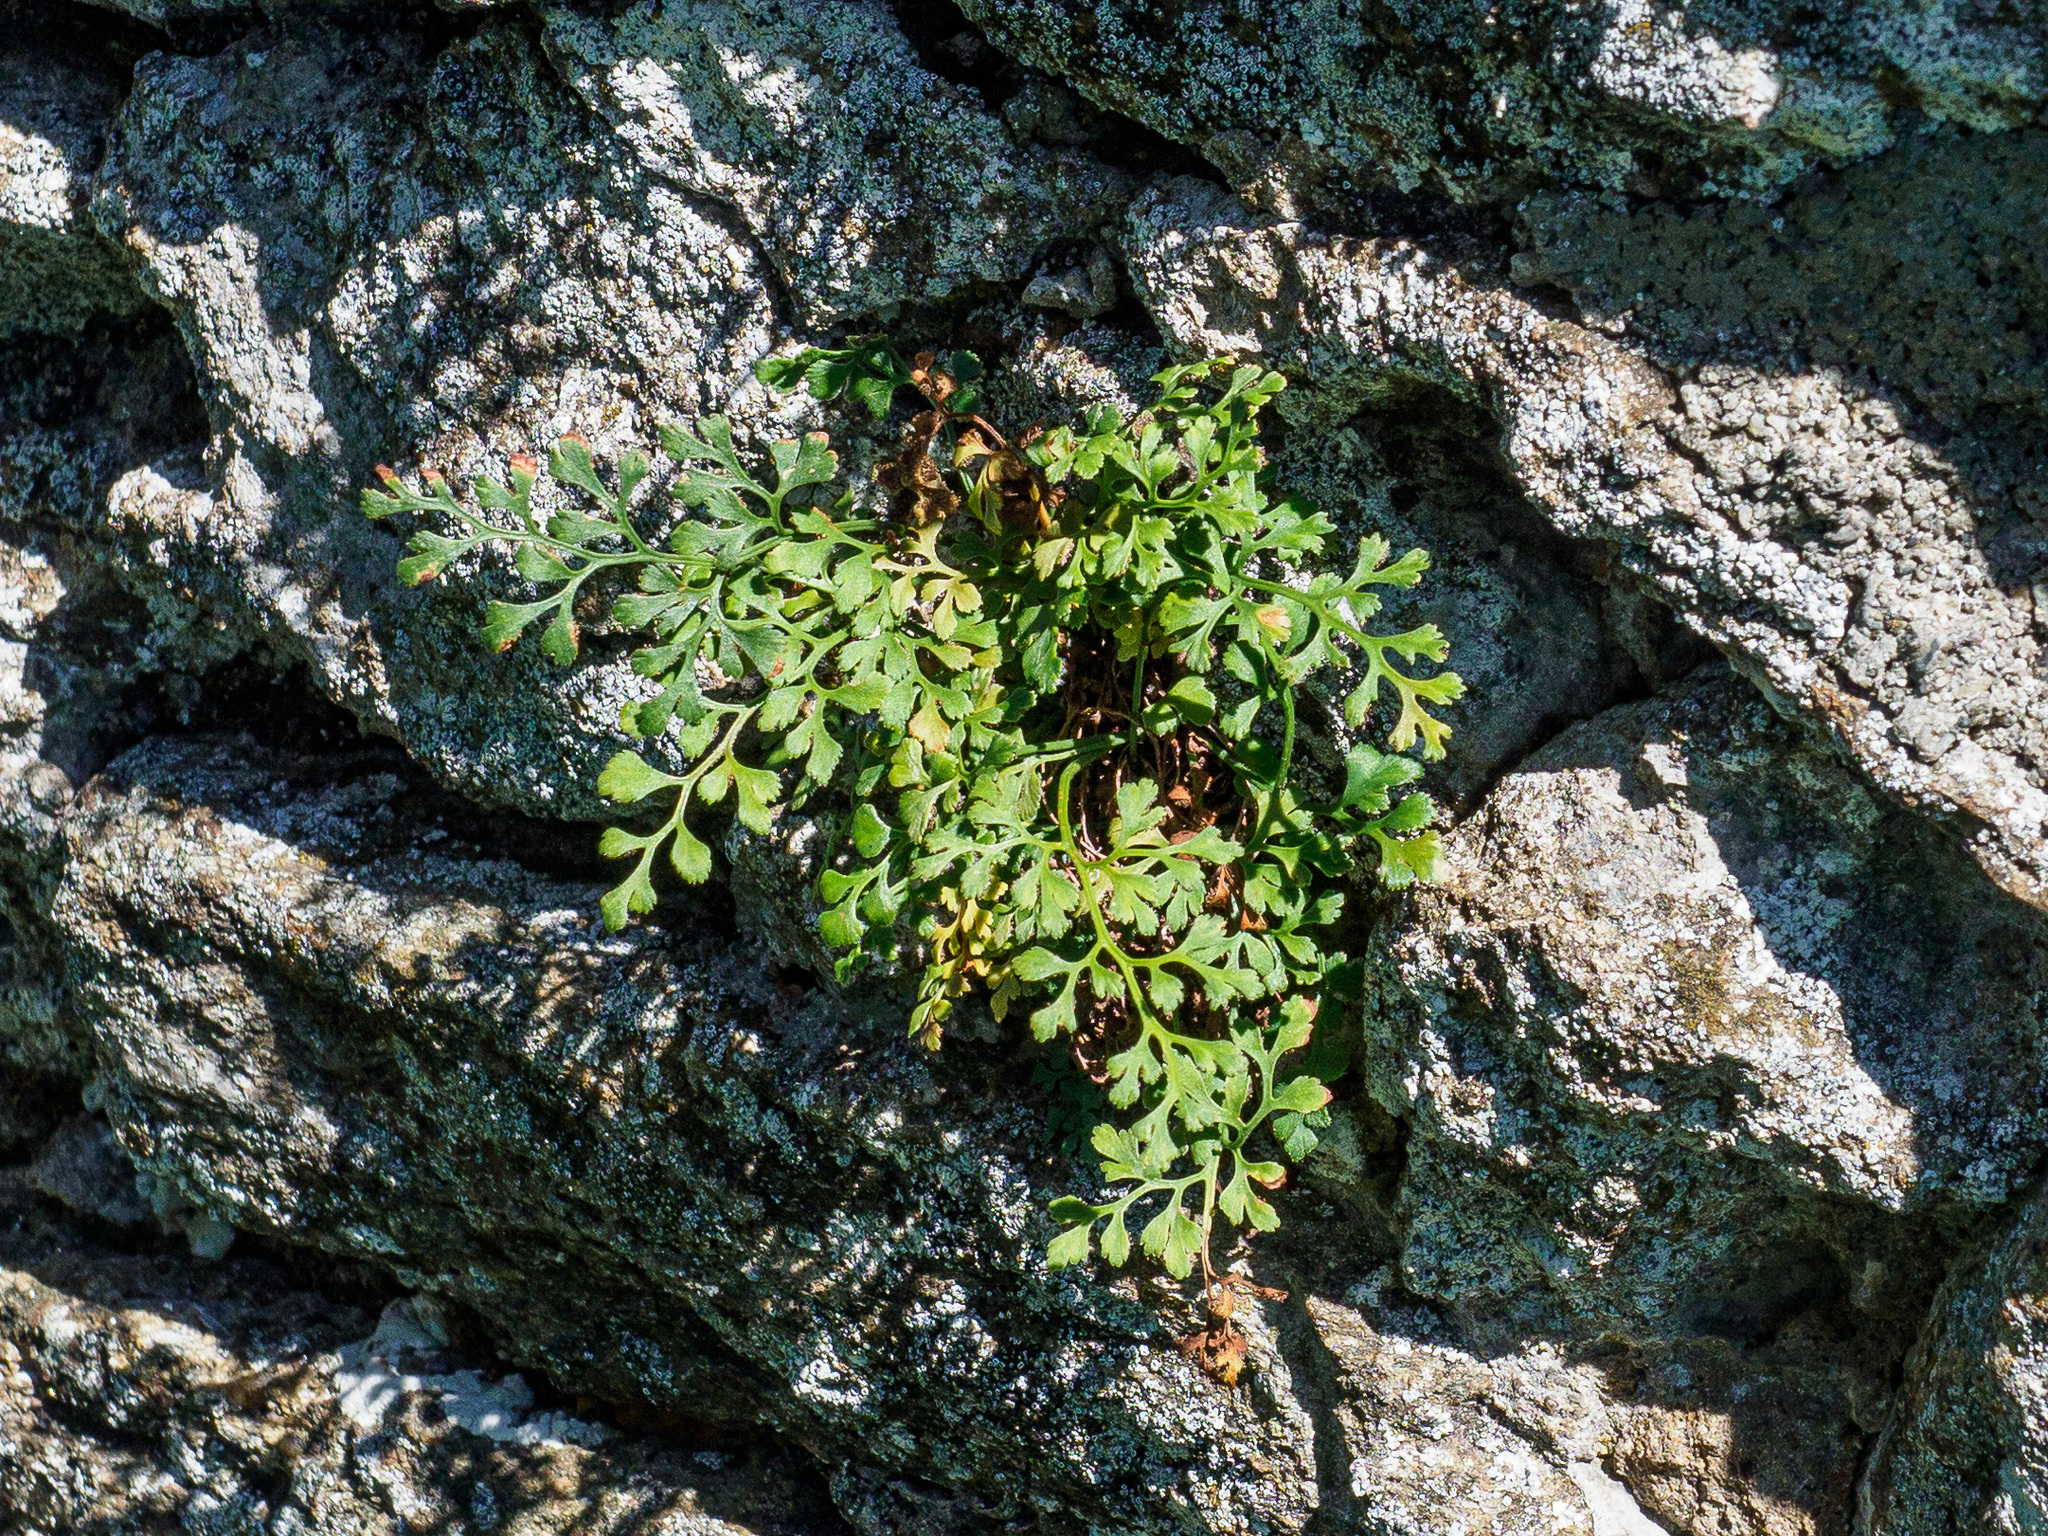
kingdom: Plantae
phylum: Tracheophyta
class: Polypodiopsida
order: Polypodiales
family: Aspleniaceae
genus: Asplenium
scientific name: Asplenium ruta-muraria
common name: Wall-rue
